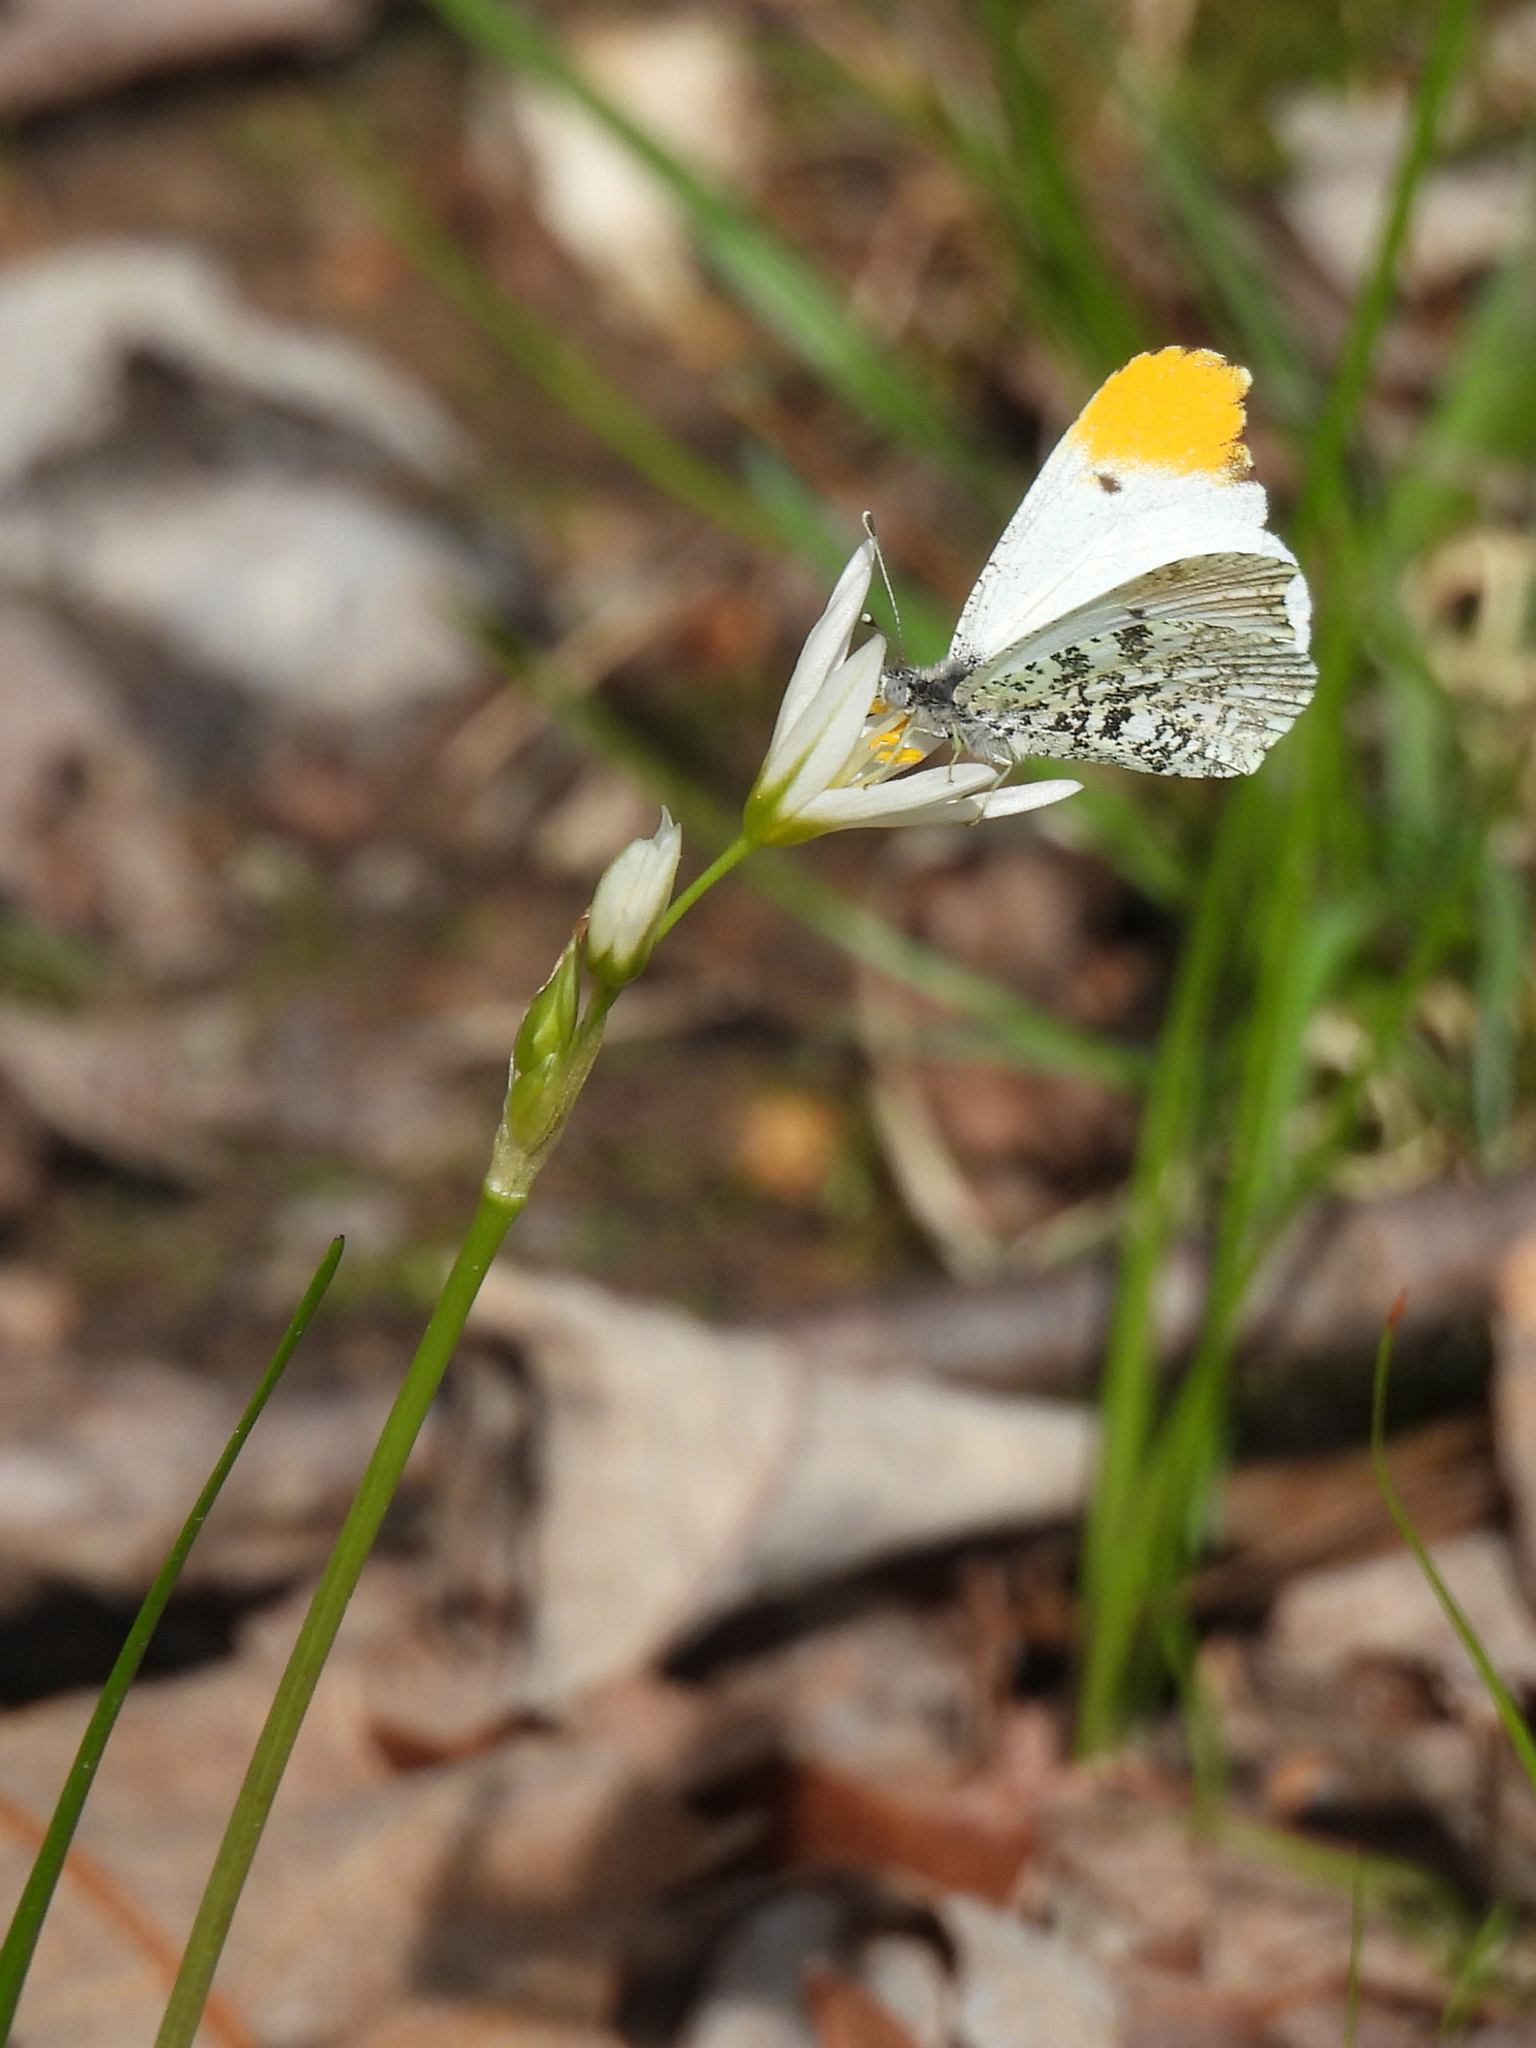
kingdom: Animalia
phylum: Arthropoda
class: Insecta
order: Lepidoptera
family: Pieridae
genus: Anthocharis
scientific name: Anthocharis midea
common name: Falcate orangetip
